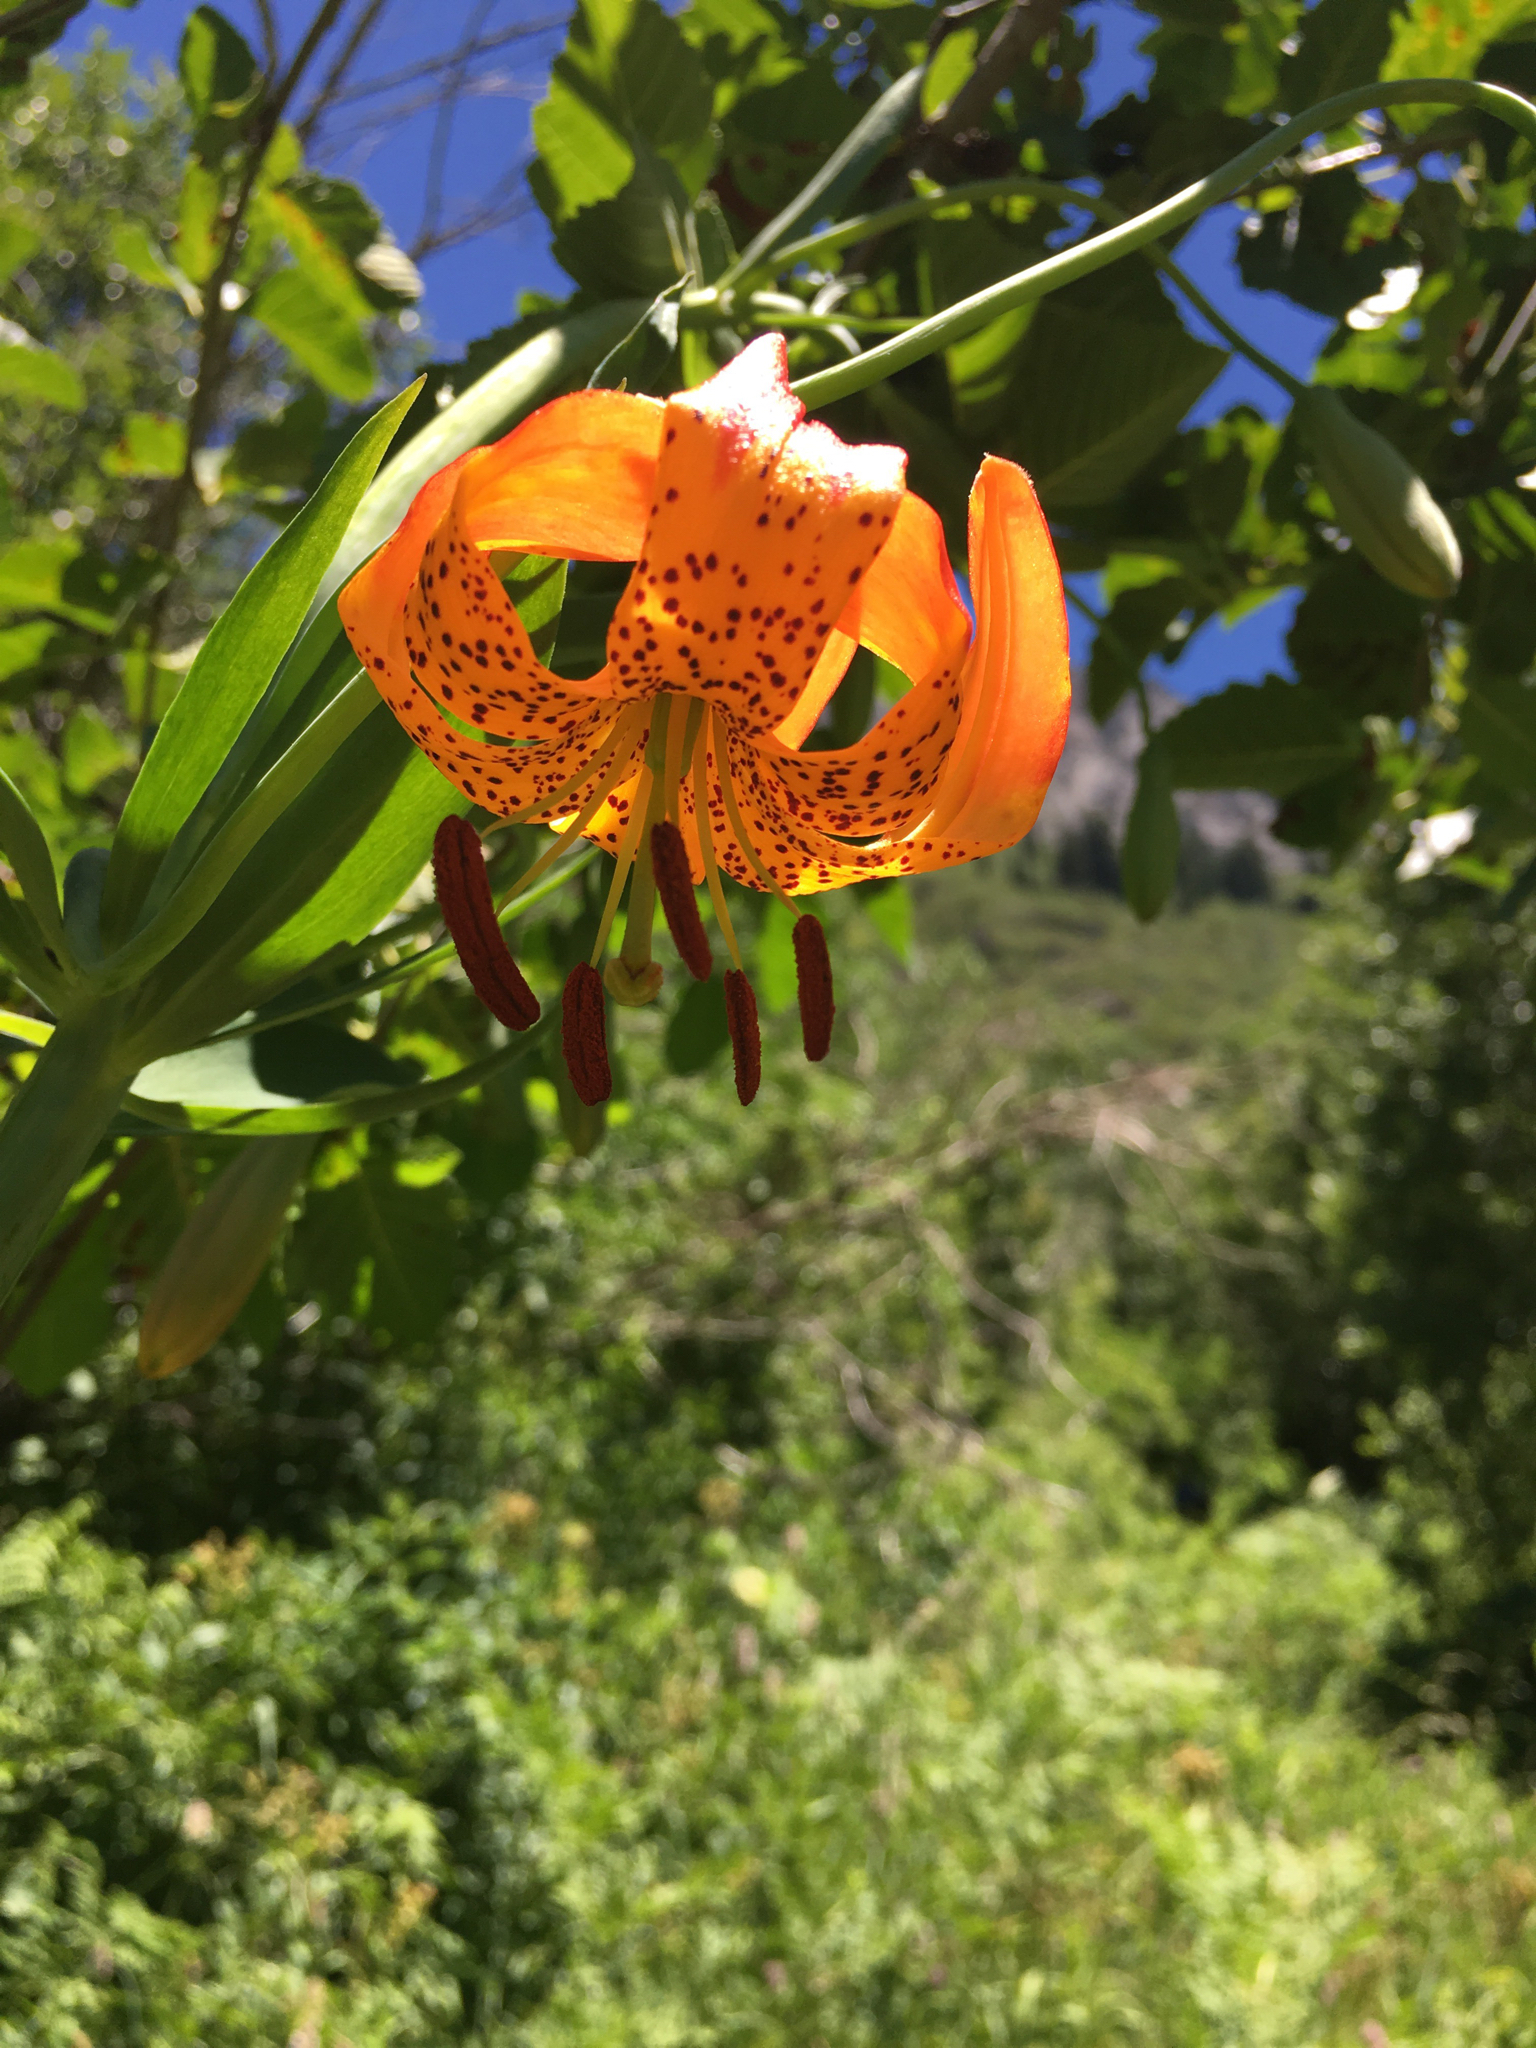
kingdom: Plantae
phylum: Tracheophyta
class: Liliopsida
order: Liliales
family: Liliaceae
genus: Lilium
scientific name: Lilium pardalinum
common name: Panther lily
